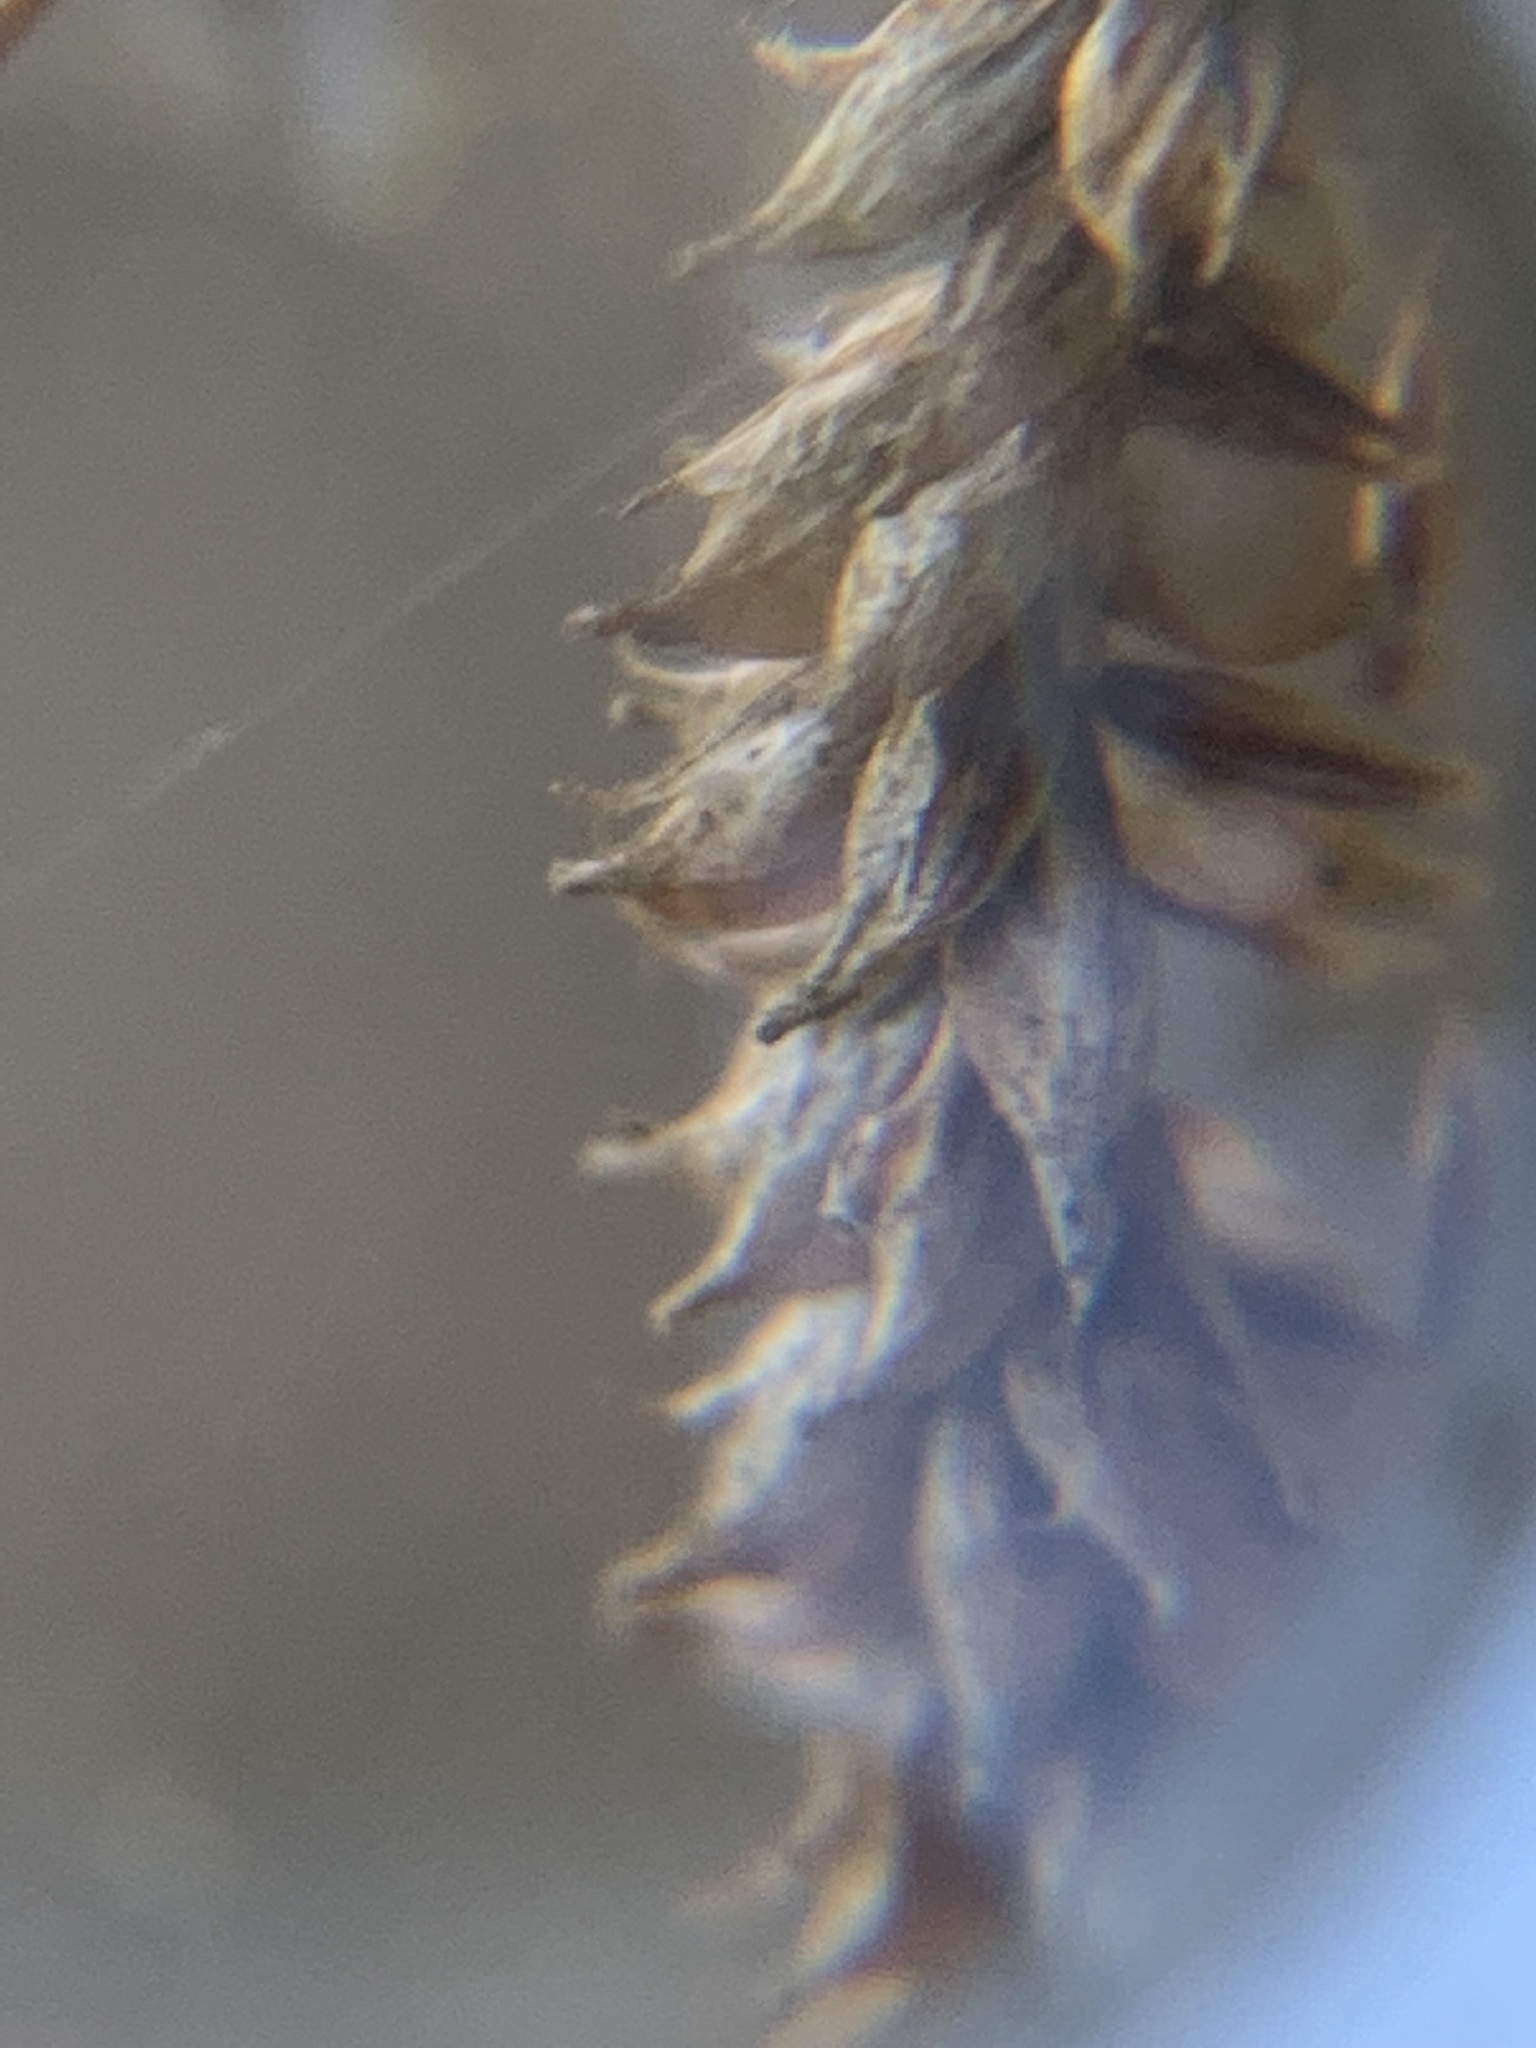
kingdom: Plantae
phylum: Tracheophyta
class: Liliopsida
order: Poales
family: Cyperaceae
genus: Carex
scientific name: Carex pendula
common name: Pendulous sedge
